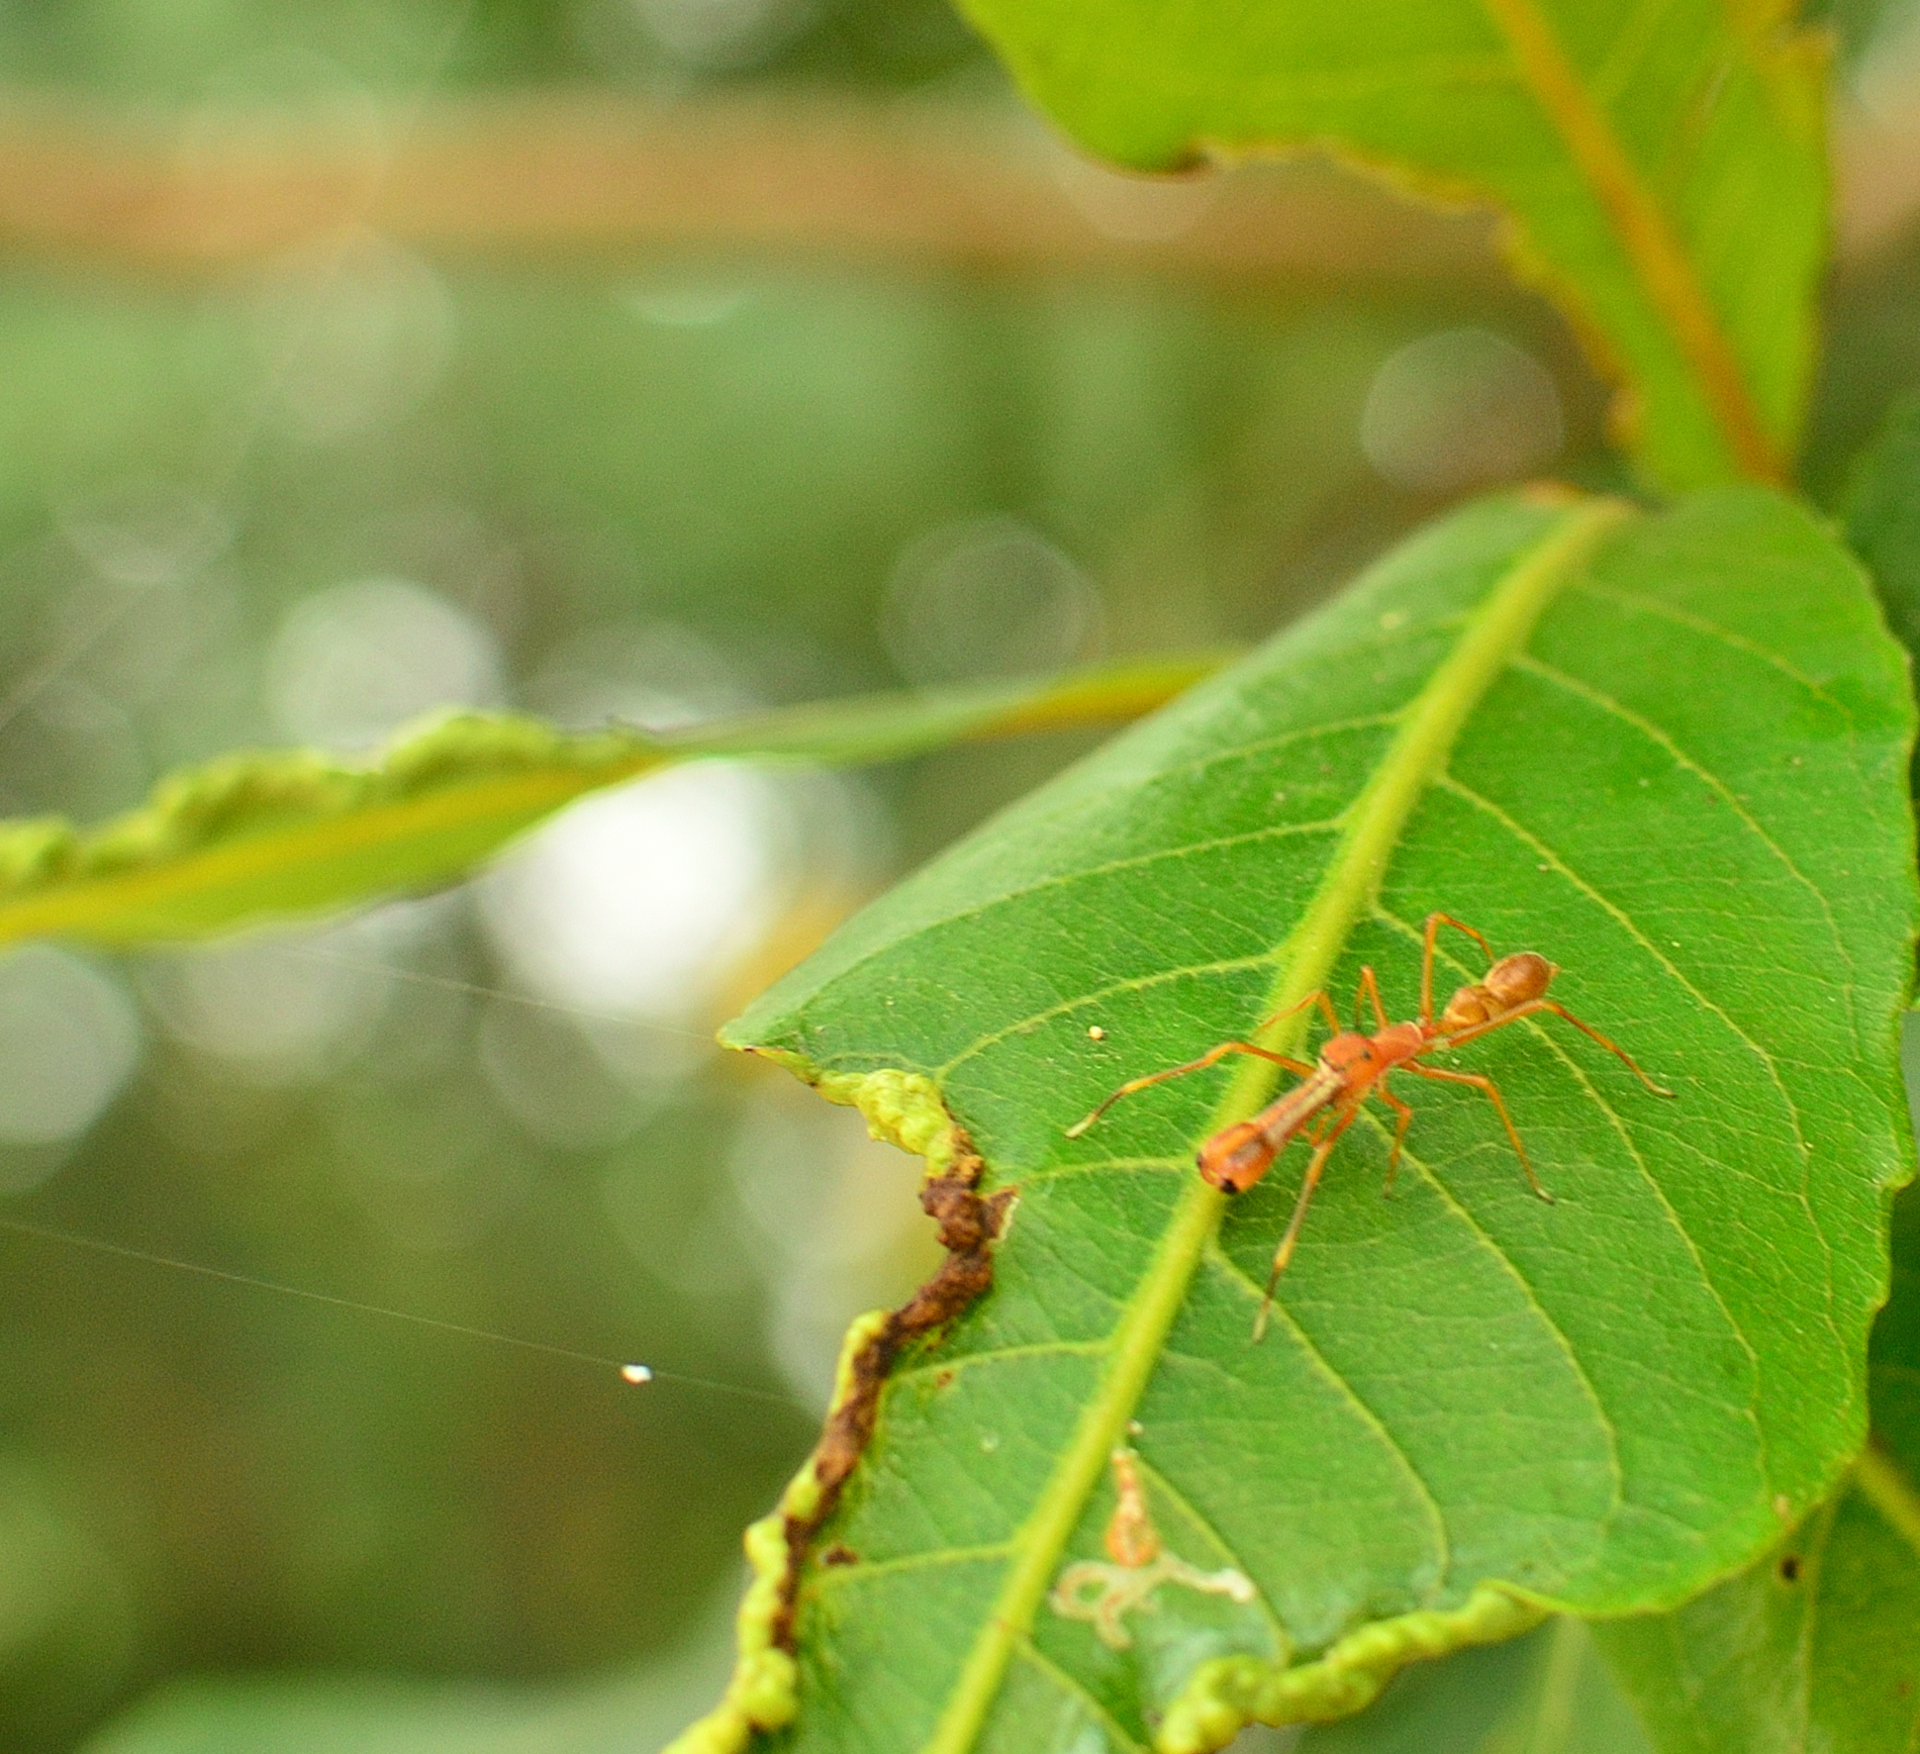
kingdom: Animalia
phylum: Arthropoda
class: Arachnida
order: Araneae
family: Salticidae
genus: Myrmaplata
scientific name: Myrmaplata plataleoides
